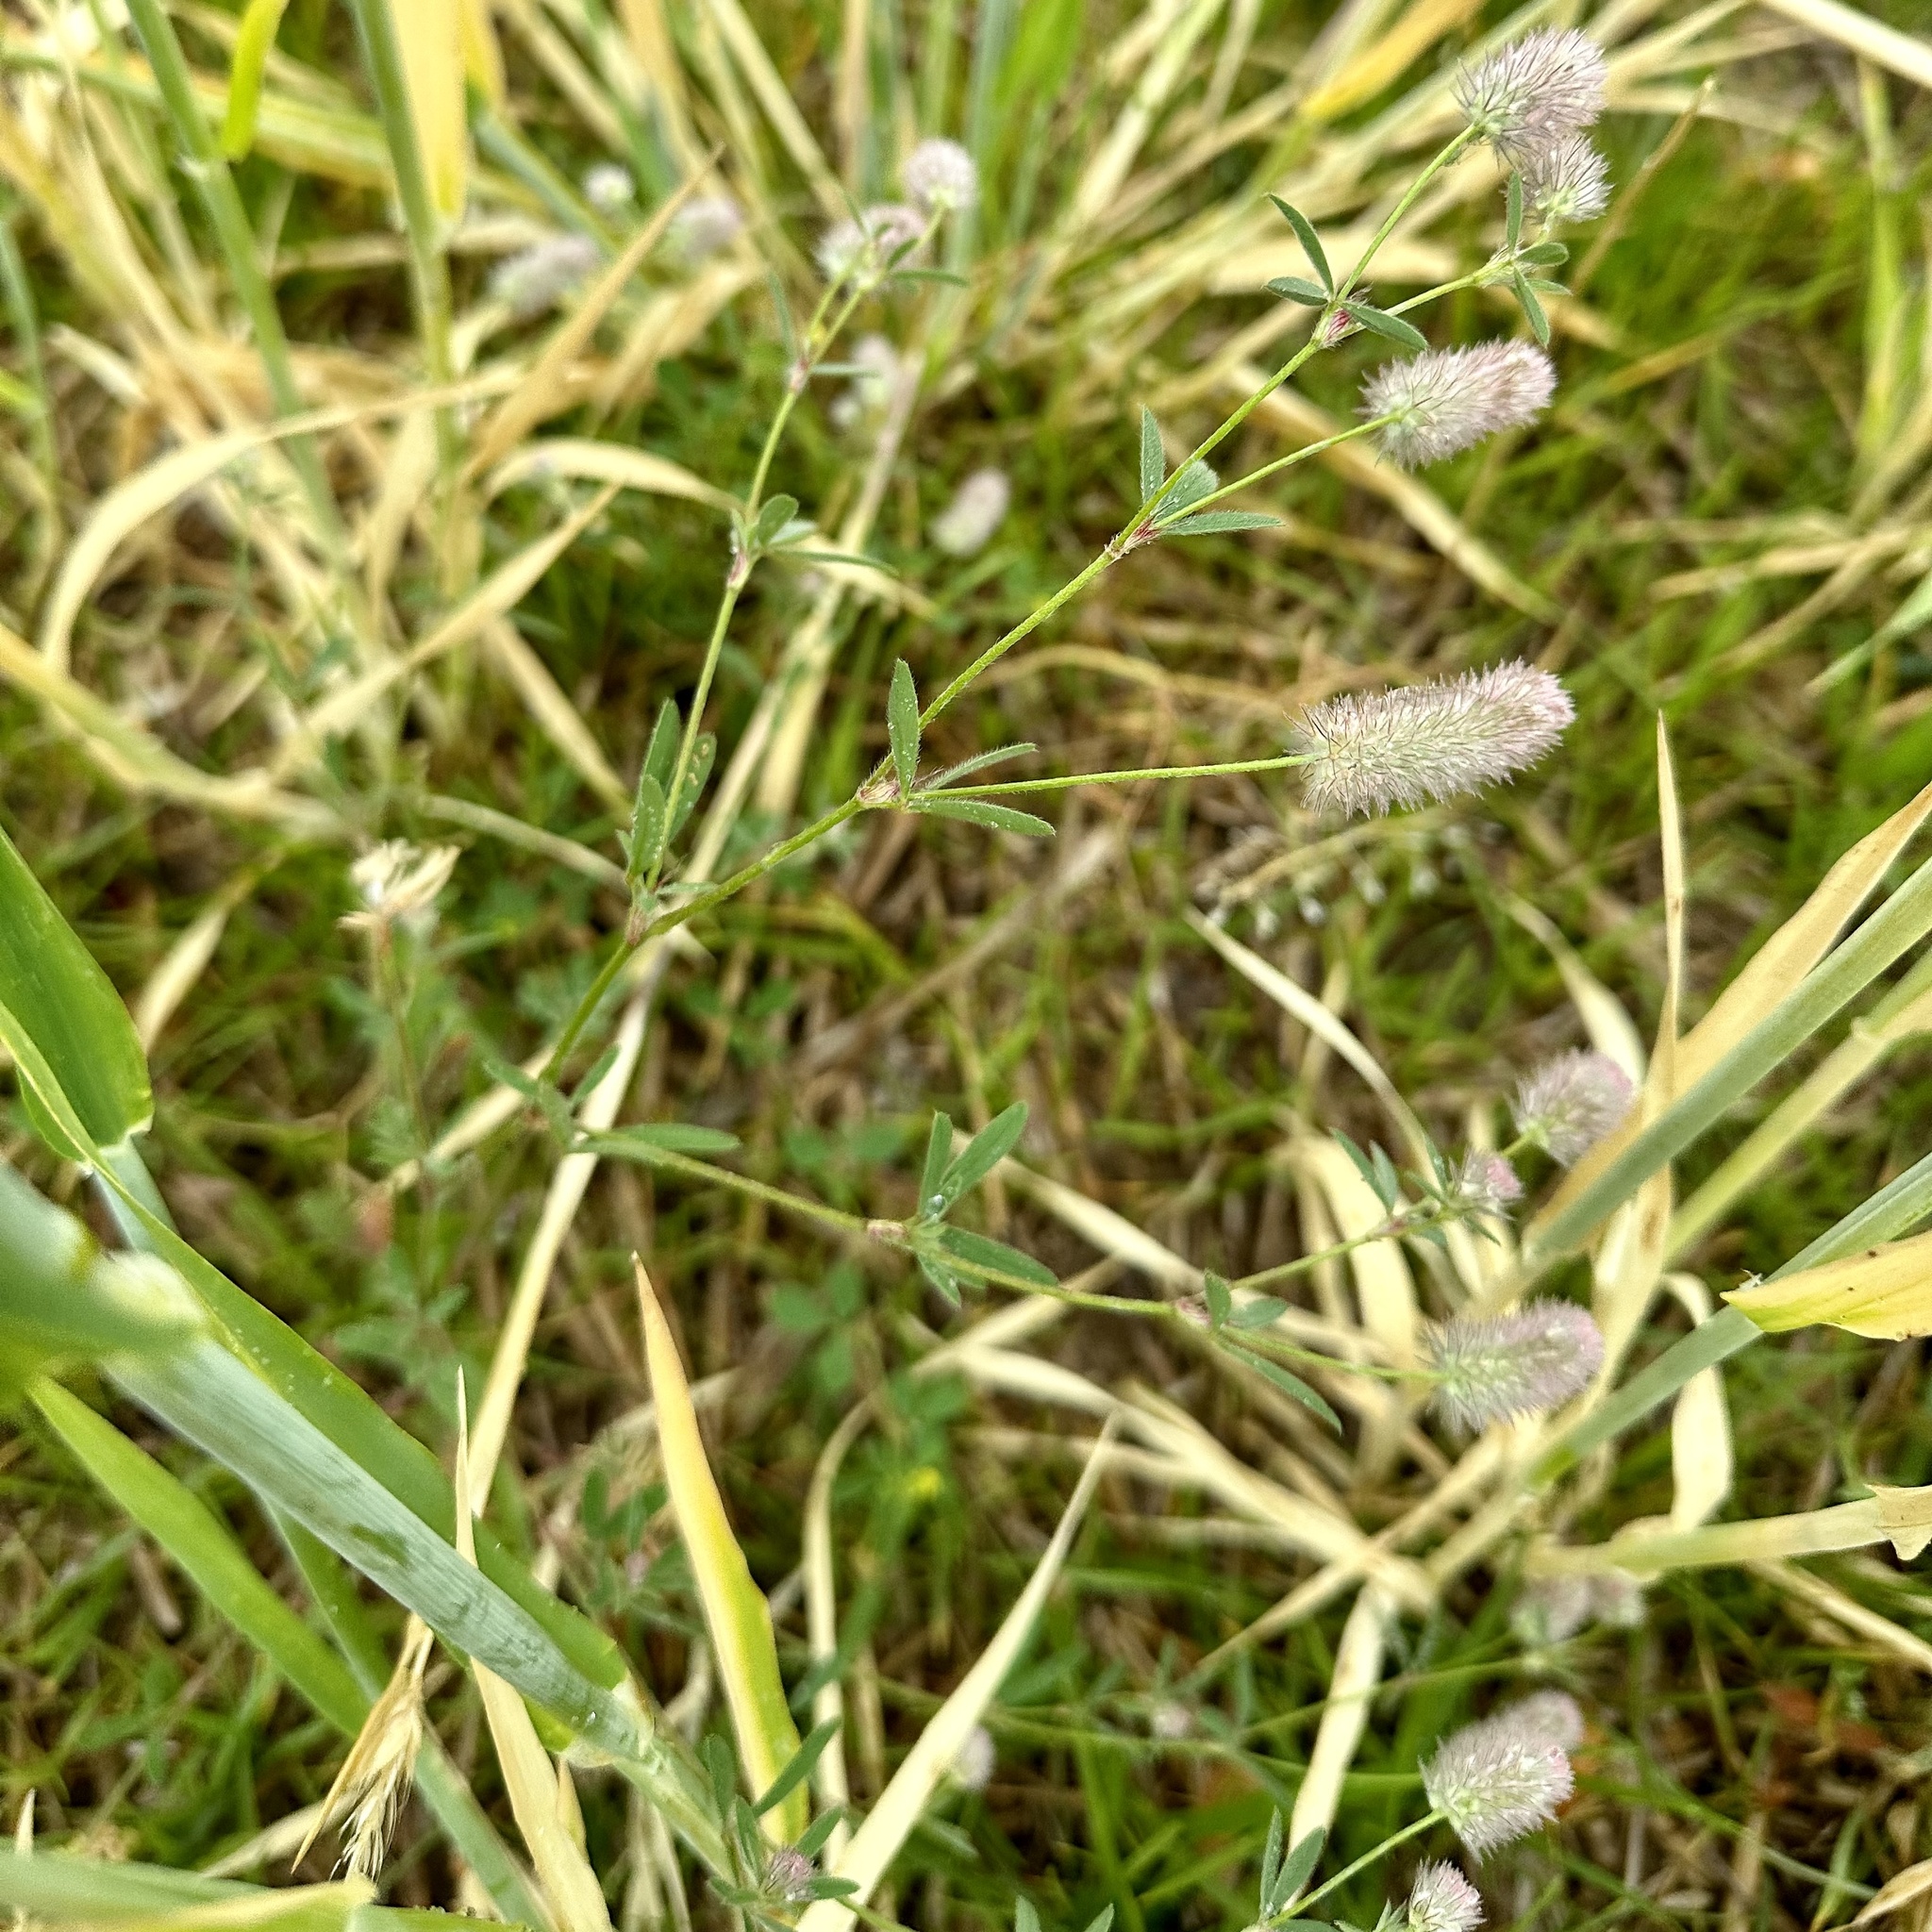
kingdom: Plantae
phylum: Tracheophyta
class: Magnoliopsida
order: Fabales
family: Fabaceae
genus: Trifolium
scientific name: Trifolium arvense
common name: Hare's-foot clover
